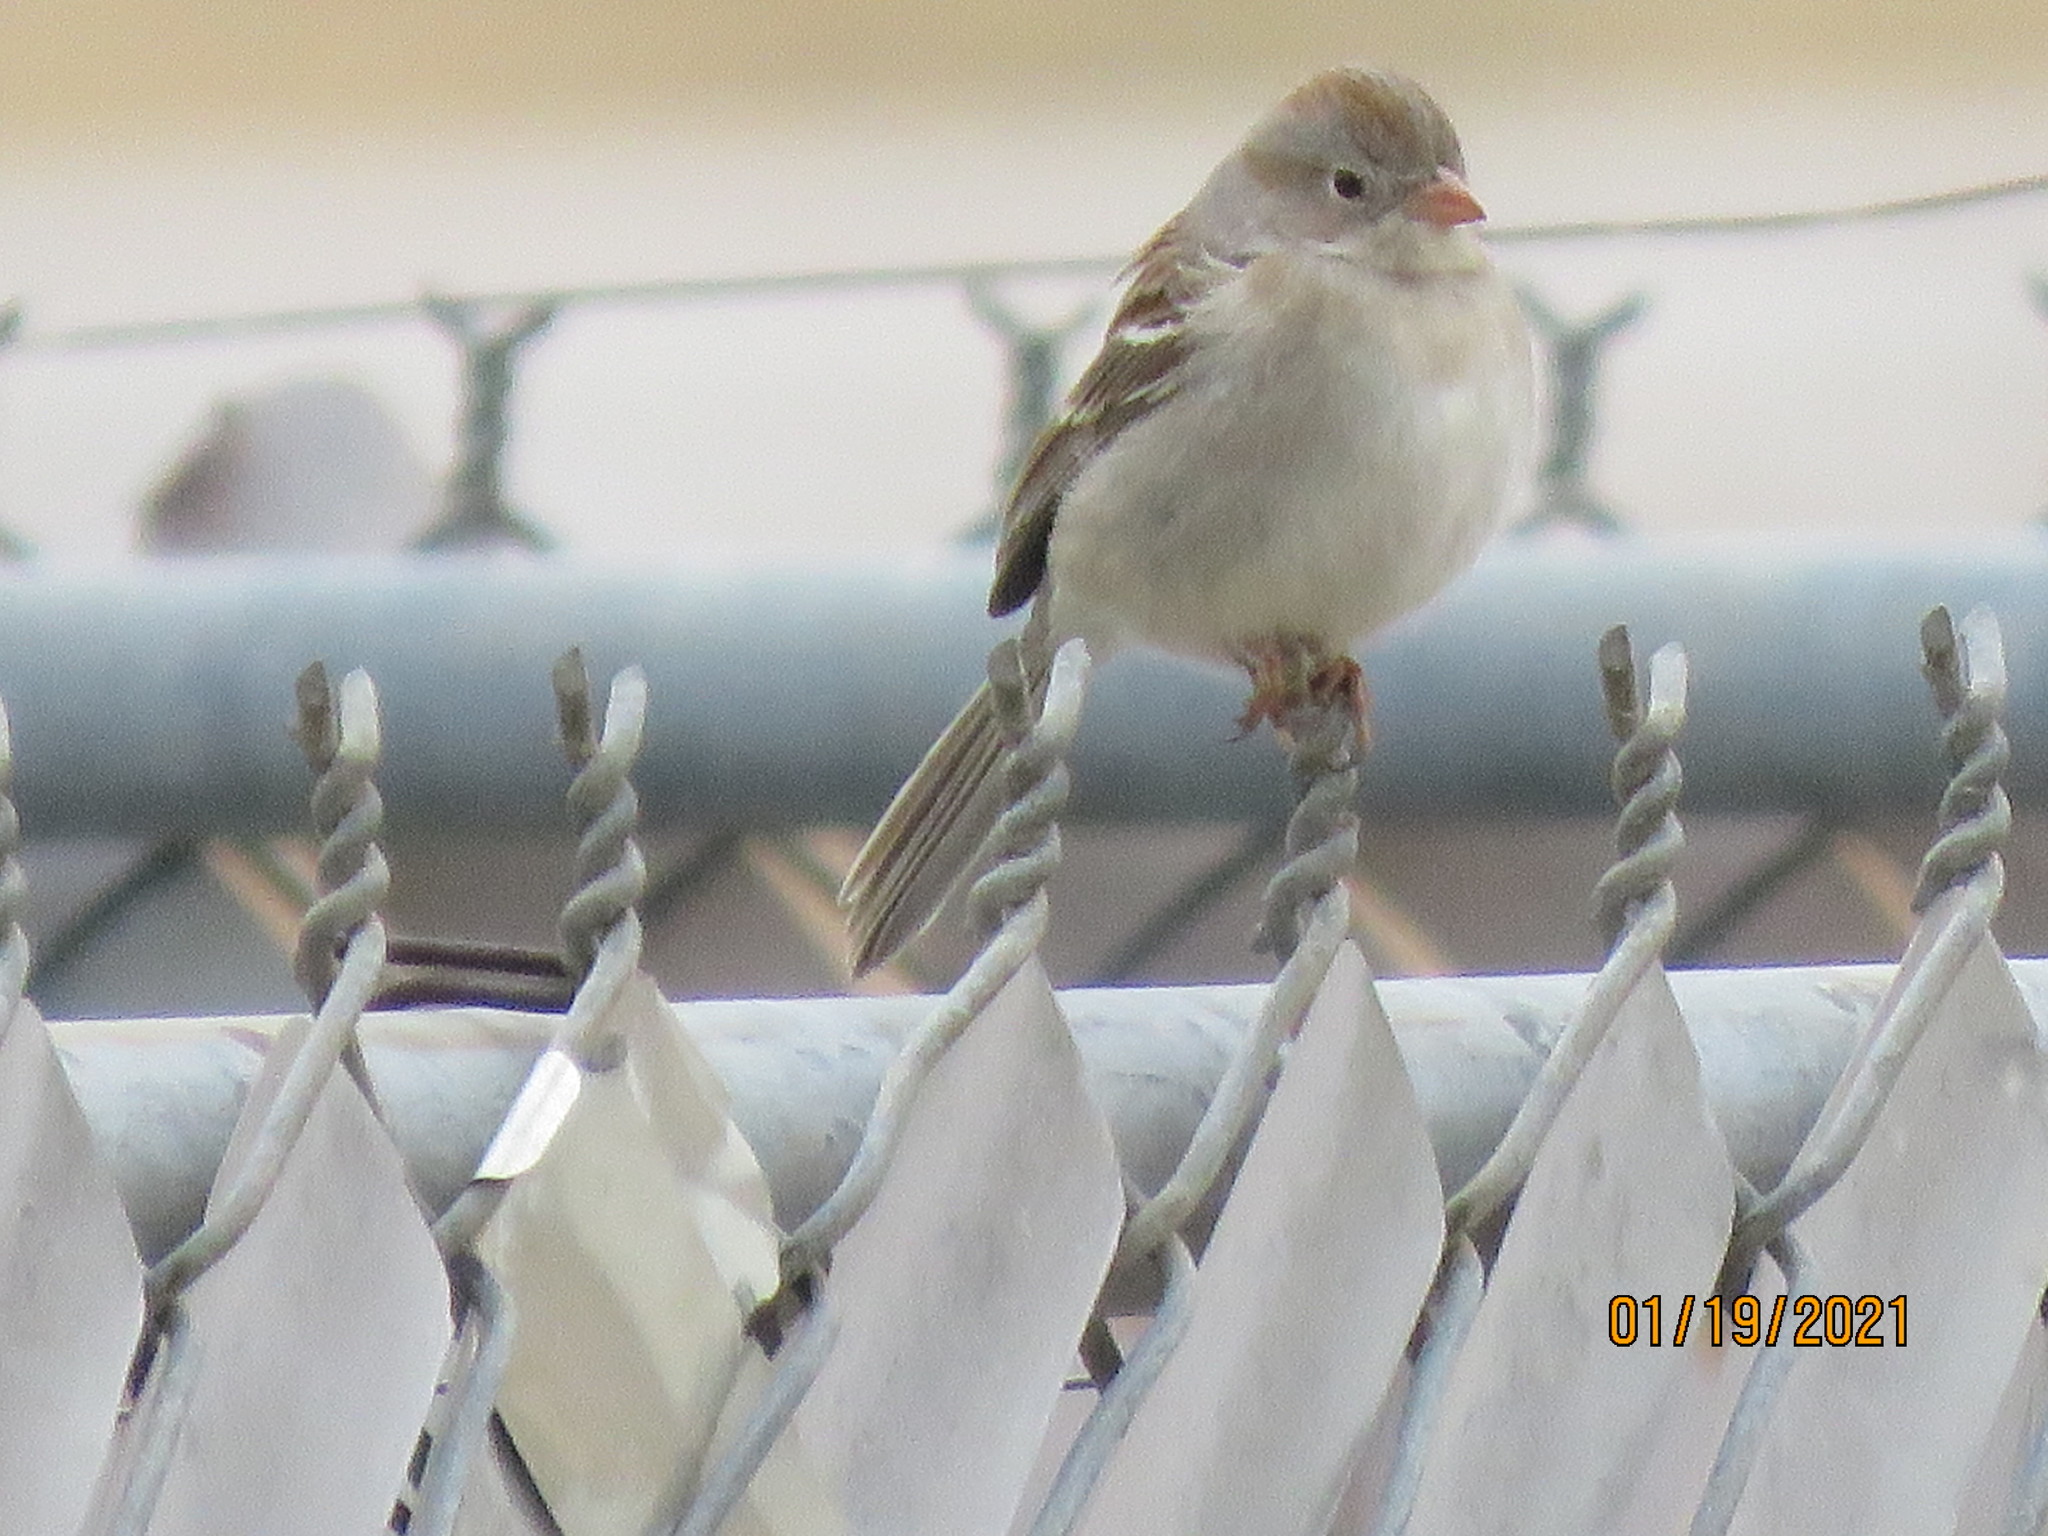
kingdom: Animalia
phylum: Chordata
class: Aves
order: Passeriformes
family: Passerellidae
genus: Spizella
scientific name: Spizella pusilla
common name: Field sparrow
